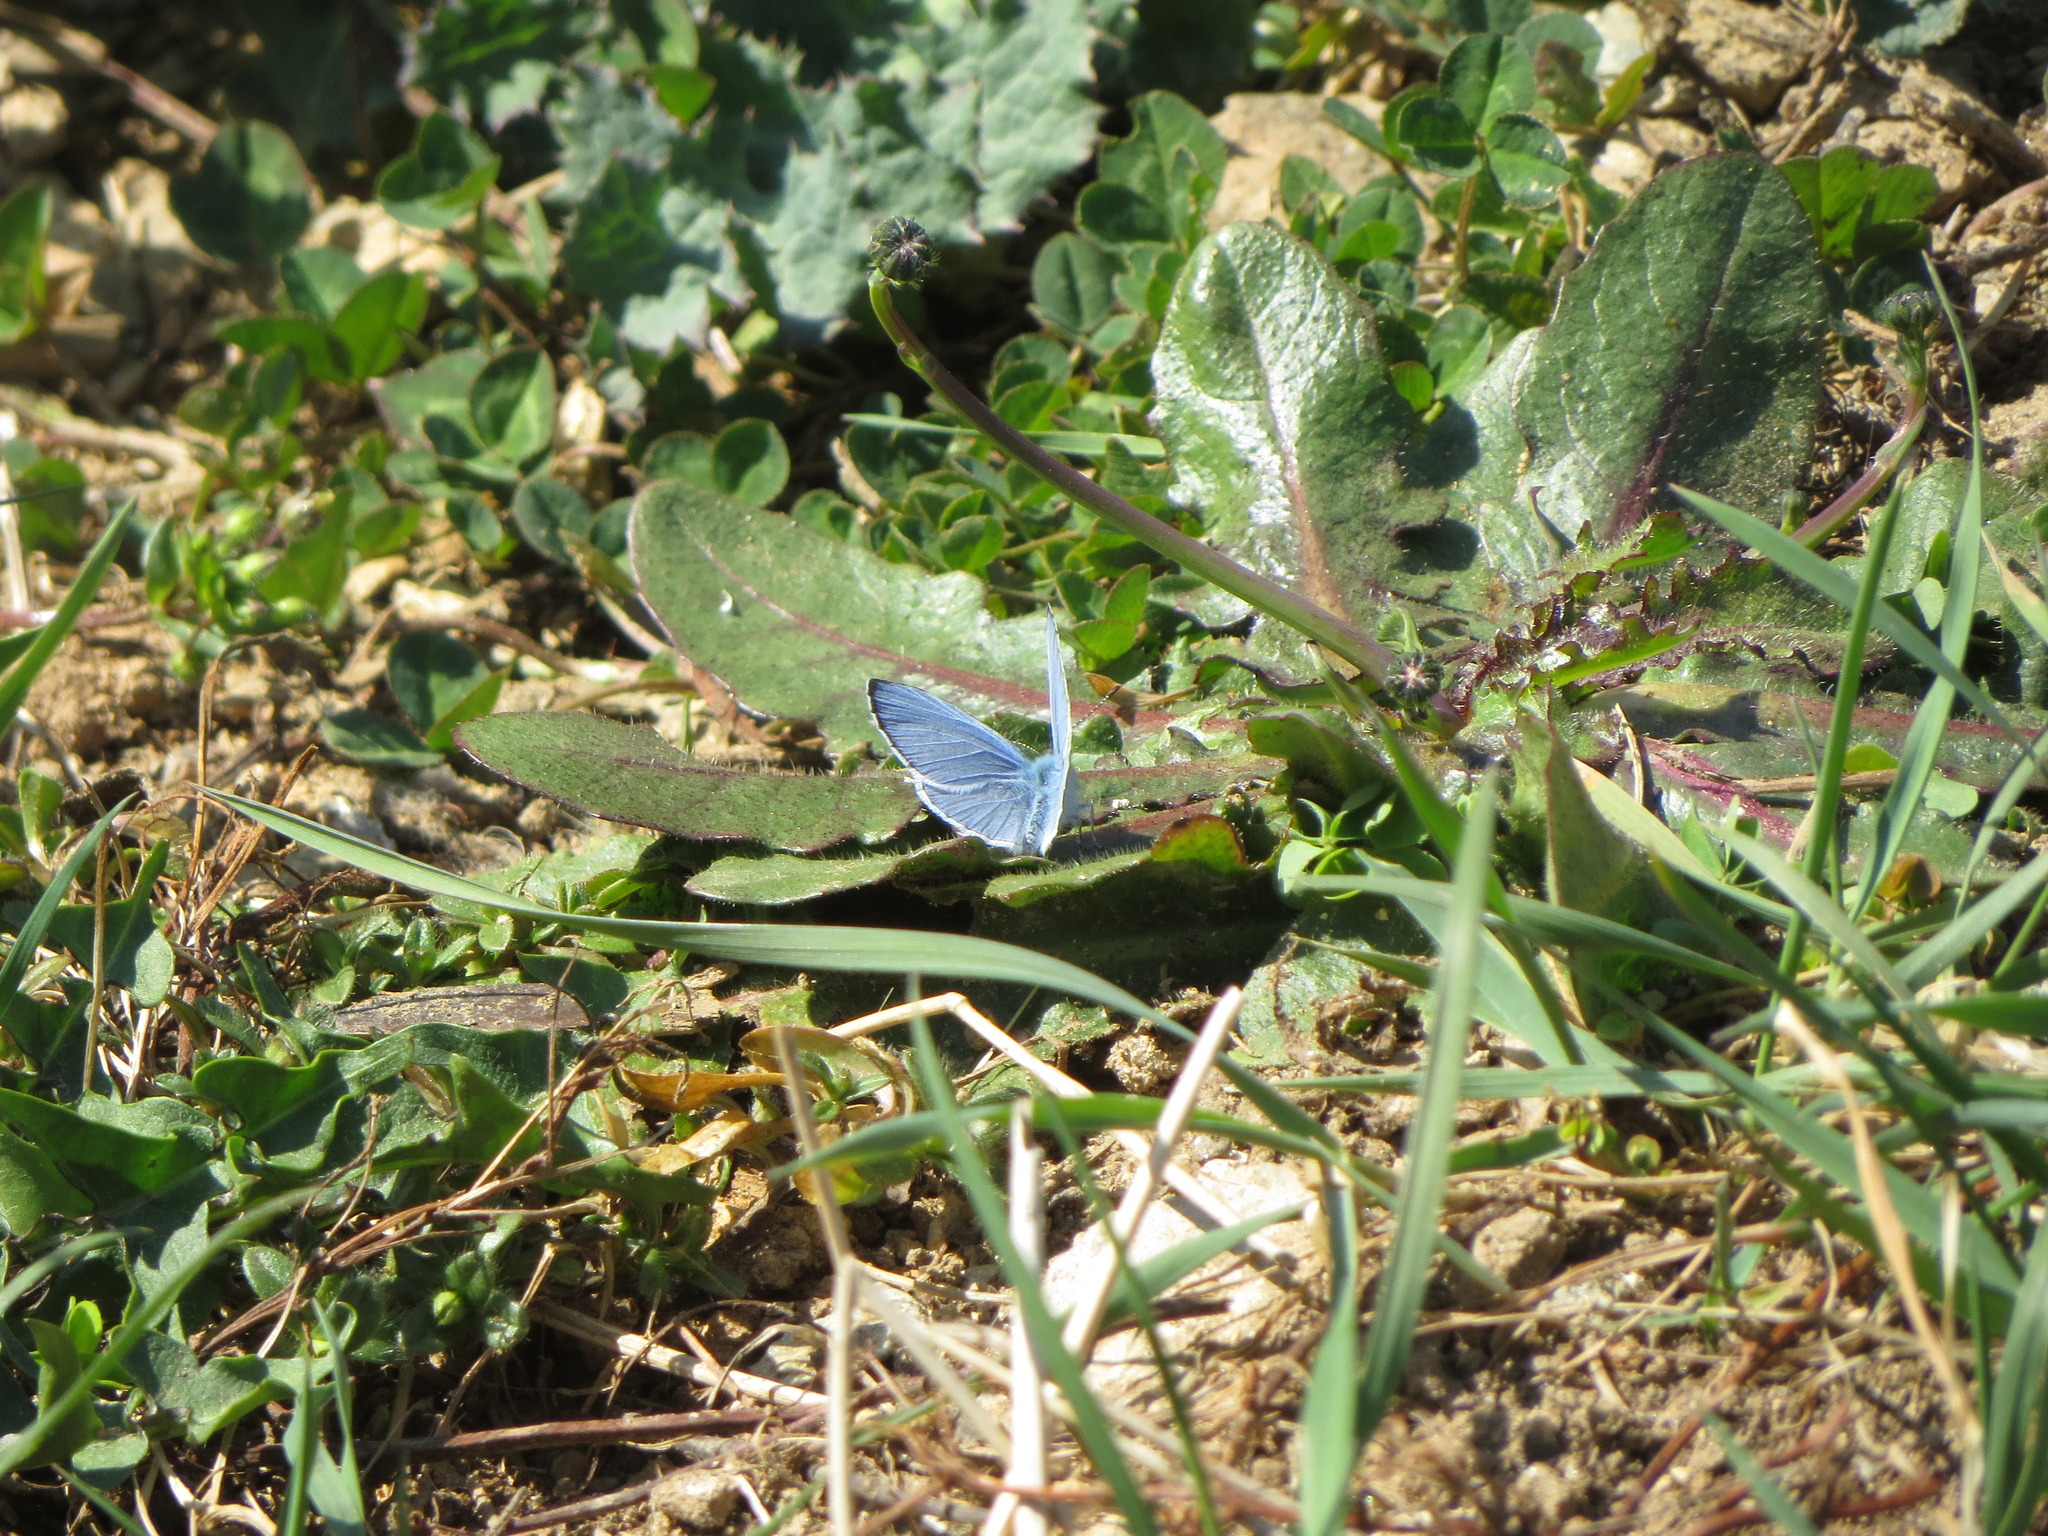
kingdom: Animalia
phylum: Arthropoda
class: Insecta
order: Lepidoptera
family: Lycaenidae
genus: Celastrina
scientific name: Celastrina argiolus
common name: Holly blue
